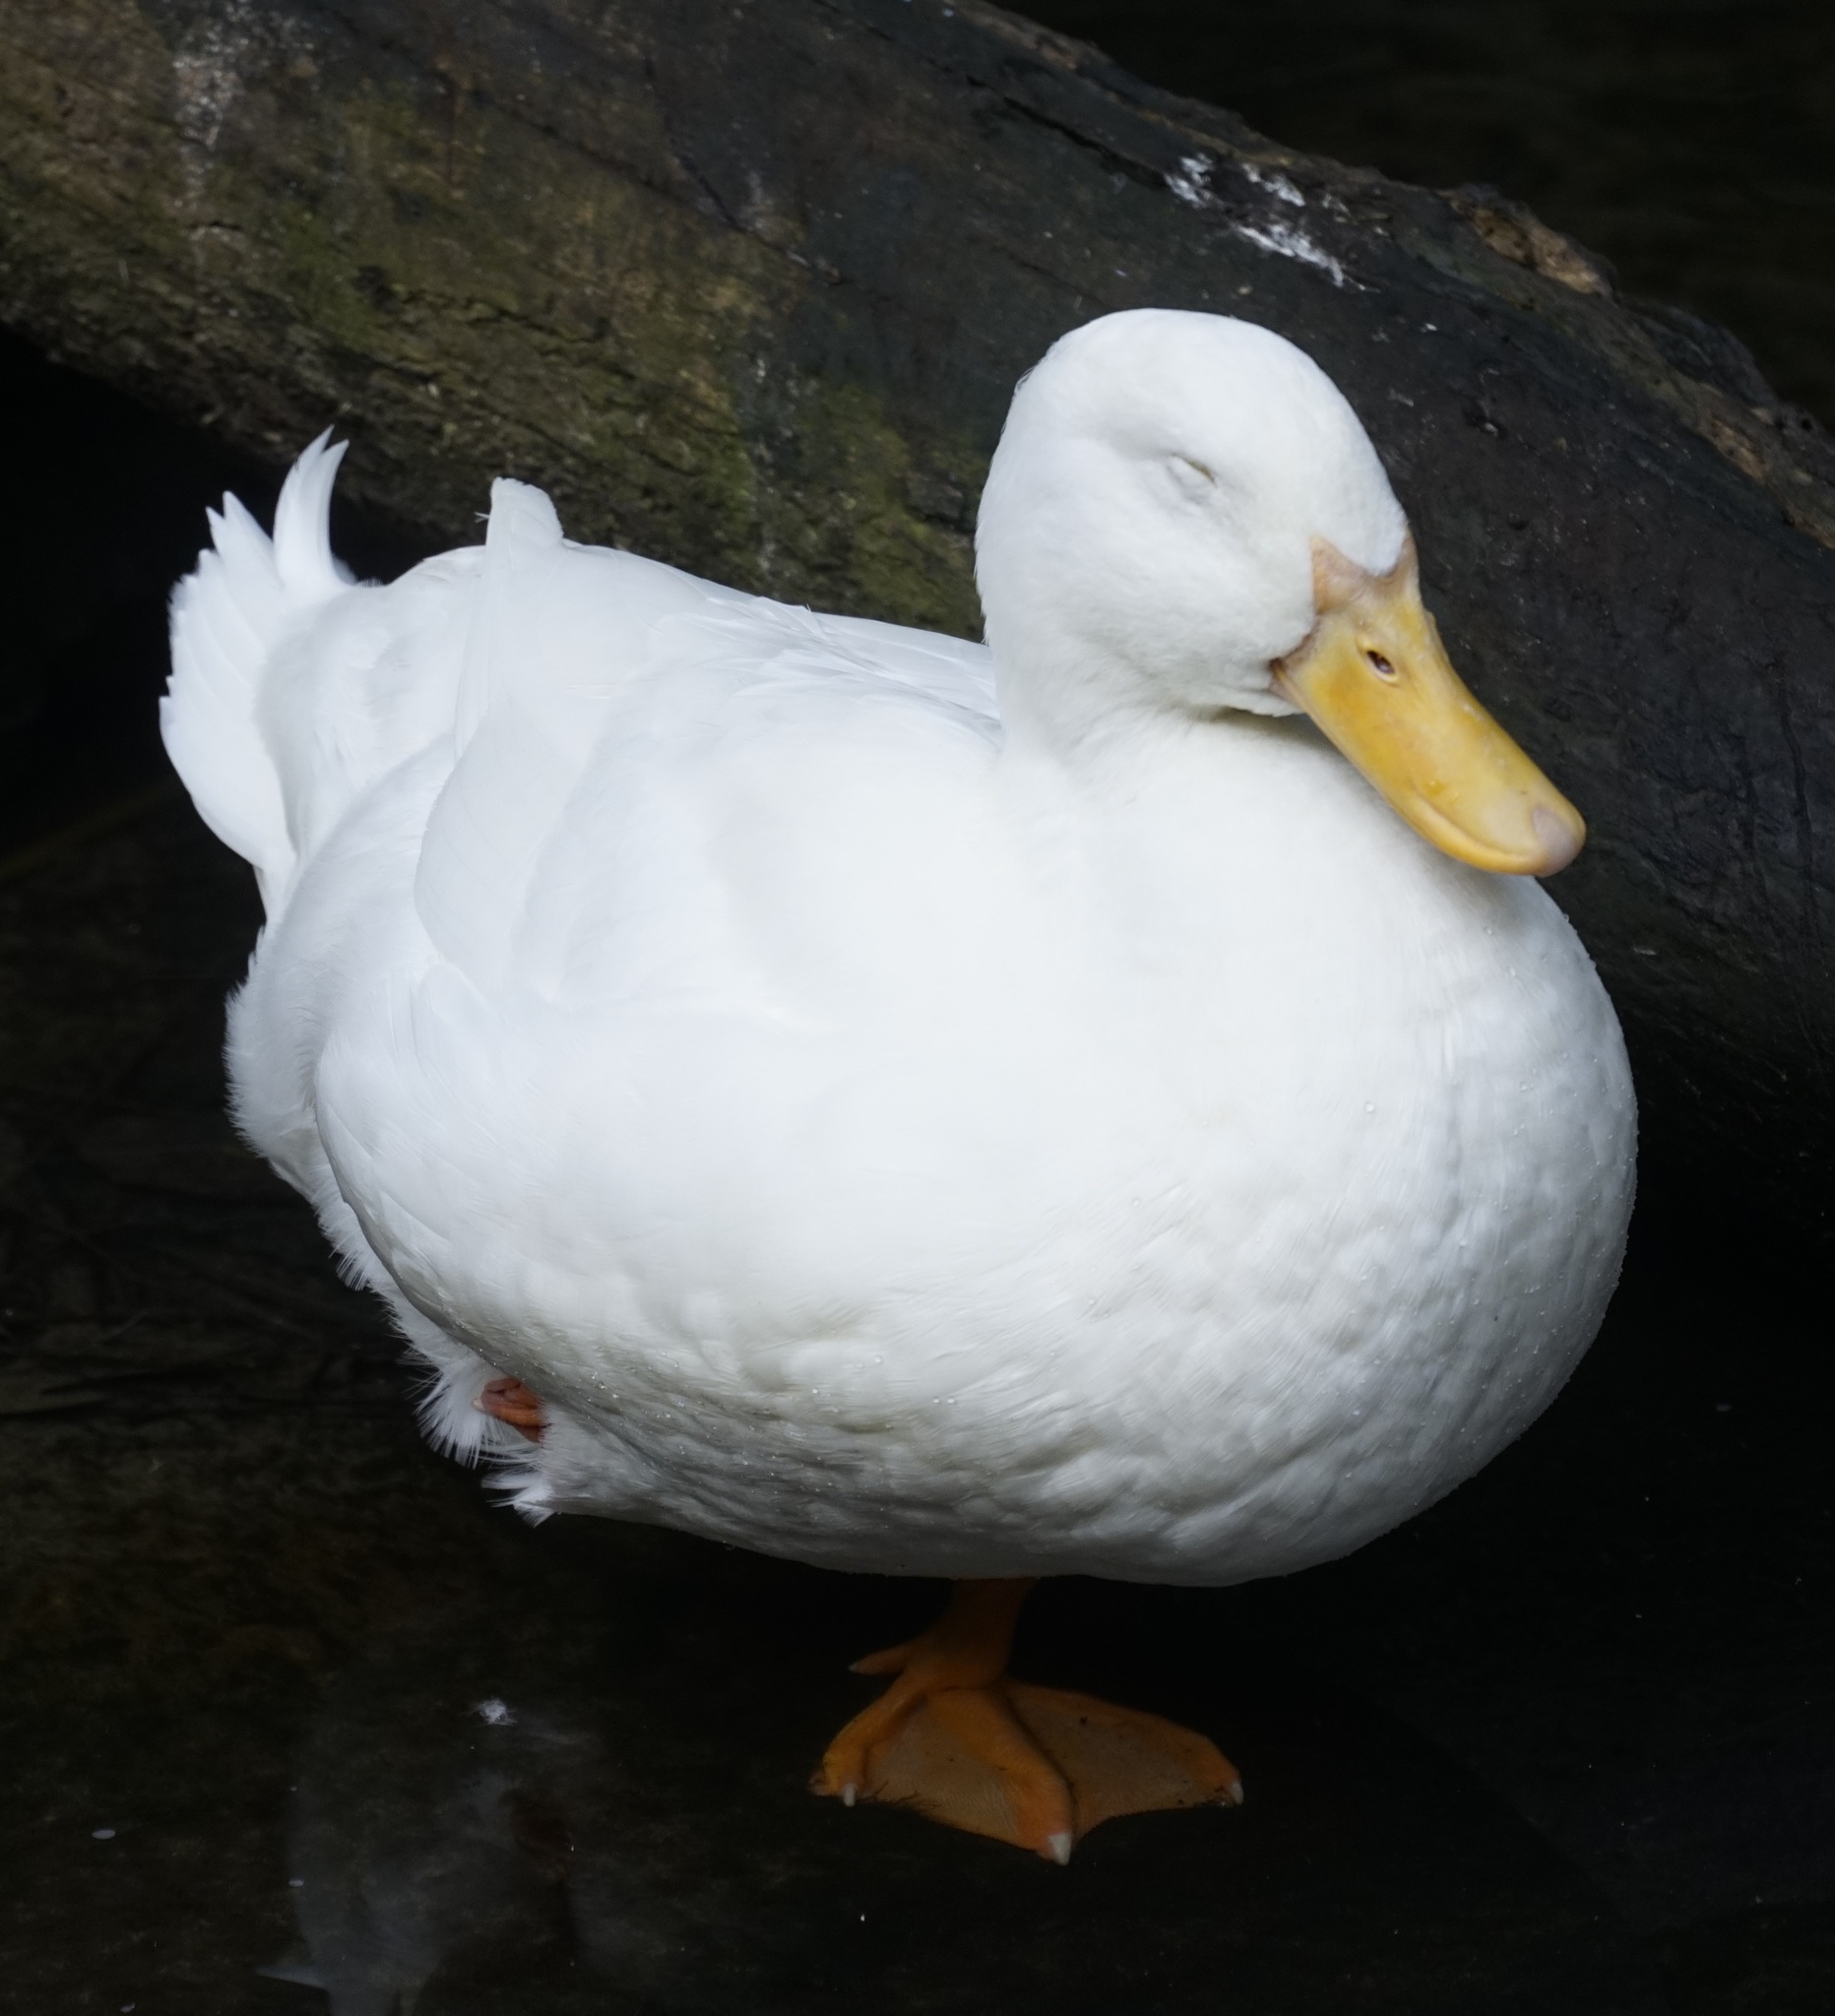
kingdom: Animalia
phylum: Chordata
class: Aves
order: Anseriformes
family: Anatidae
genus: Anas
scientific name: Anas platyrhynchos
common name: Mallard
